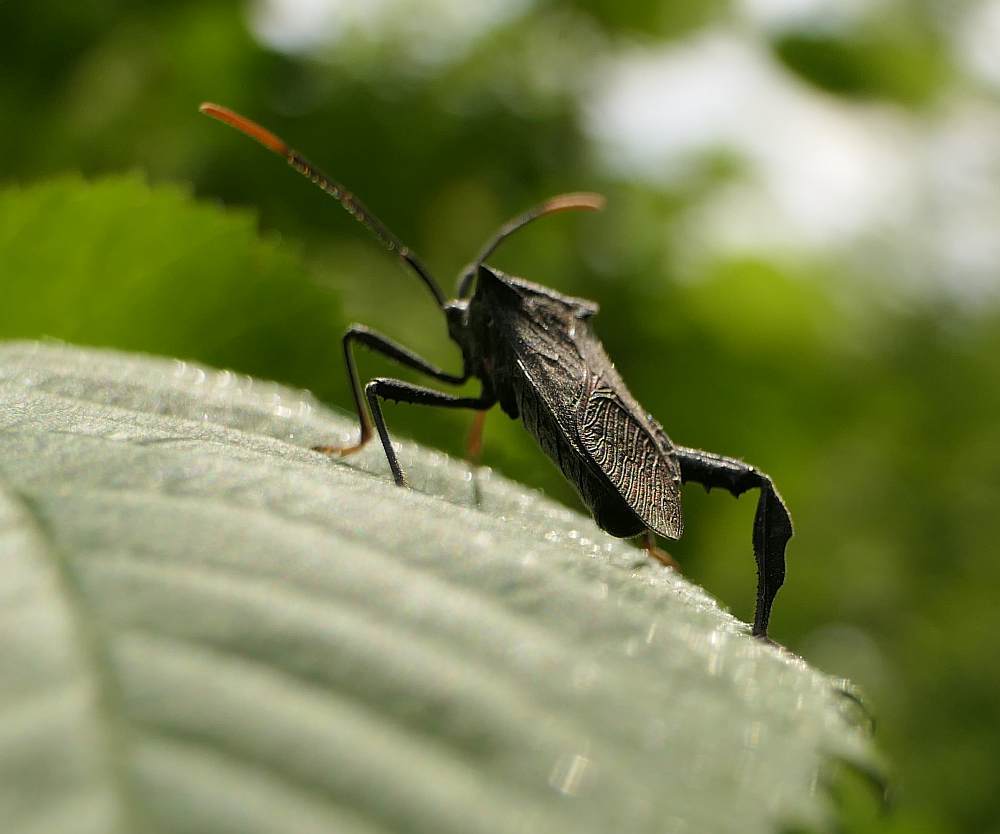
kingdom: Animalia
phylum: Arthropoda
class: Insecta
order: Hemiptera
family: Coreidae
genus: Acanthocephala
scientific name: Acanthocephala terminalis
